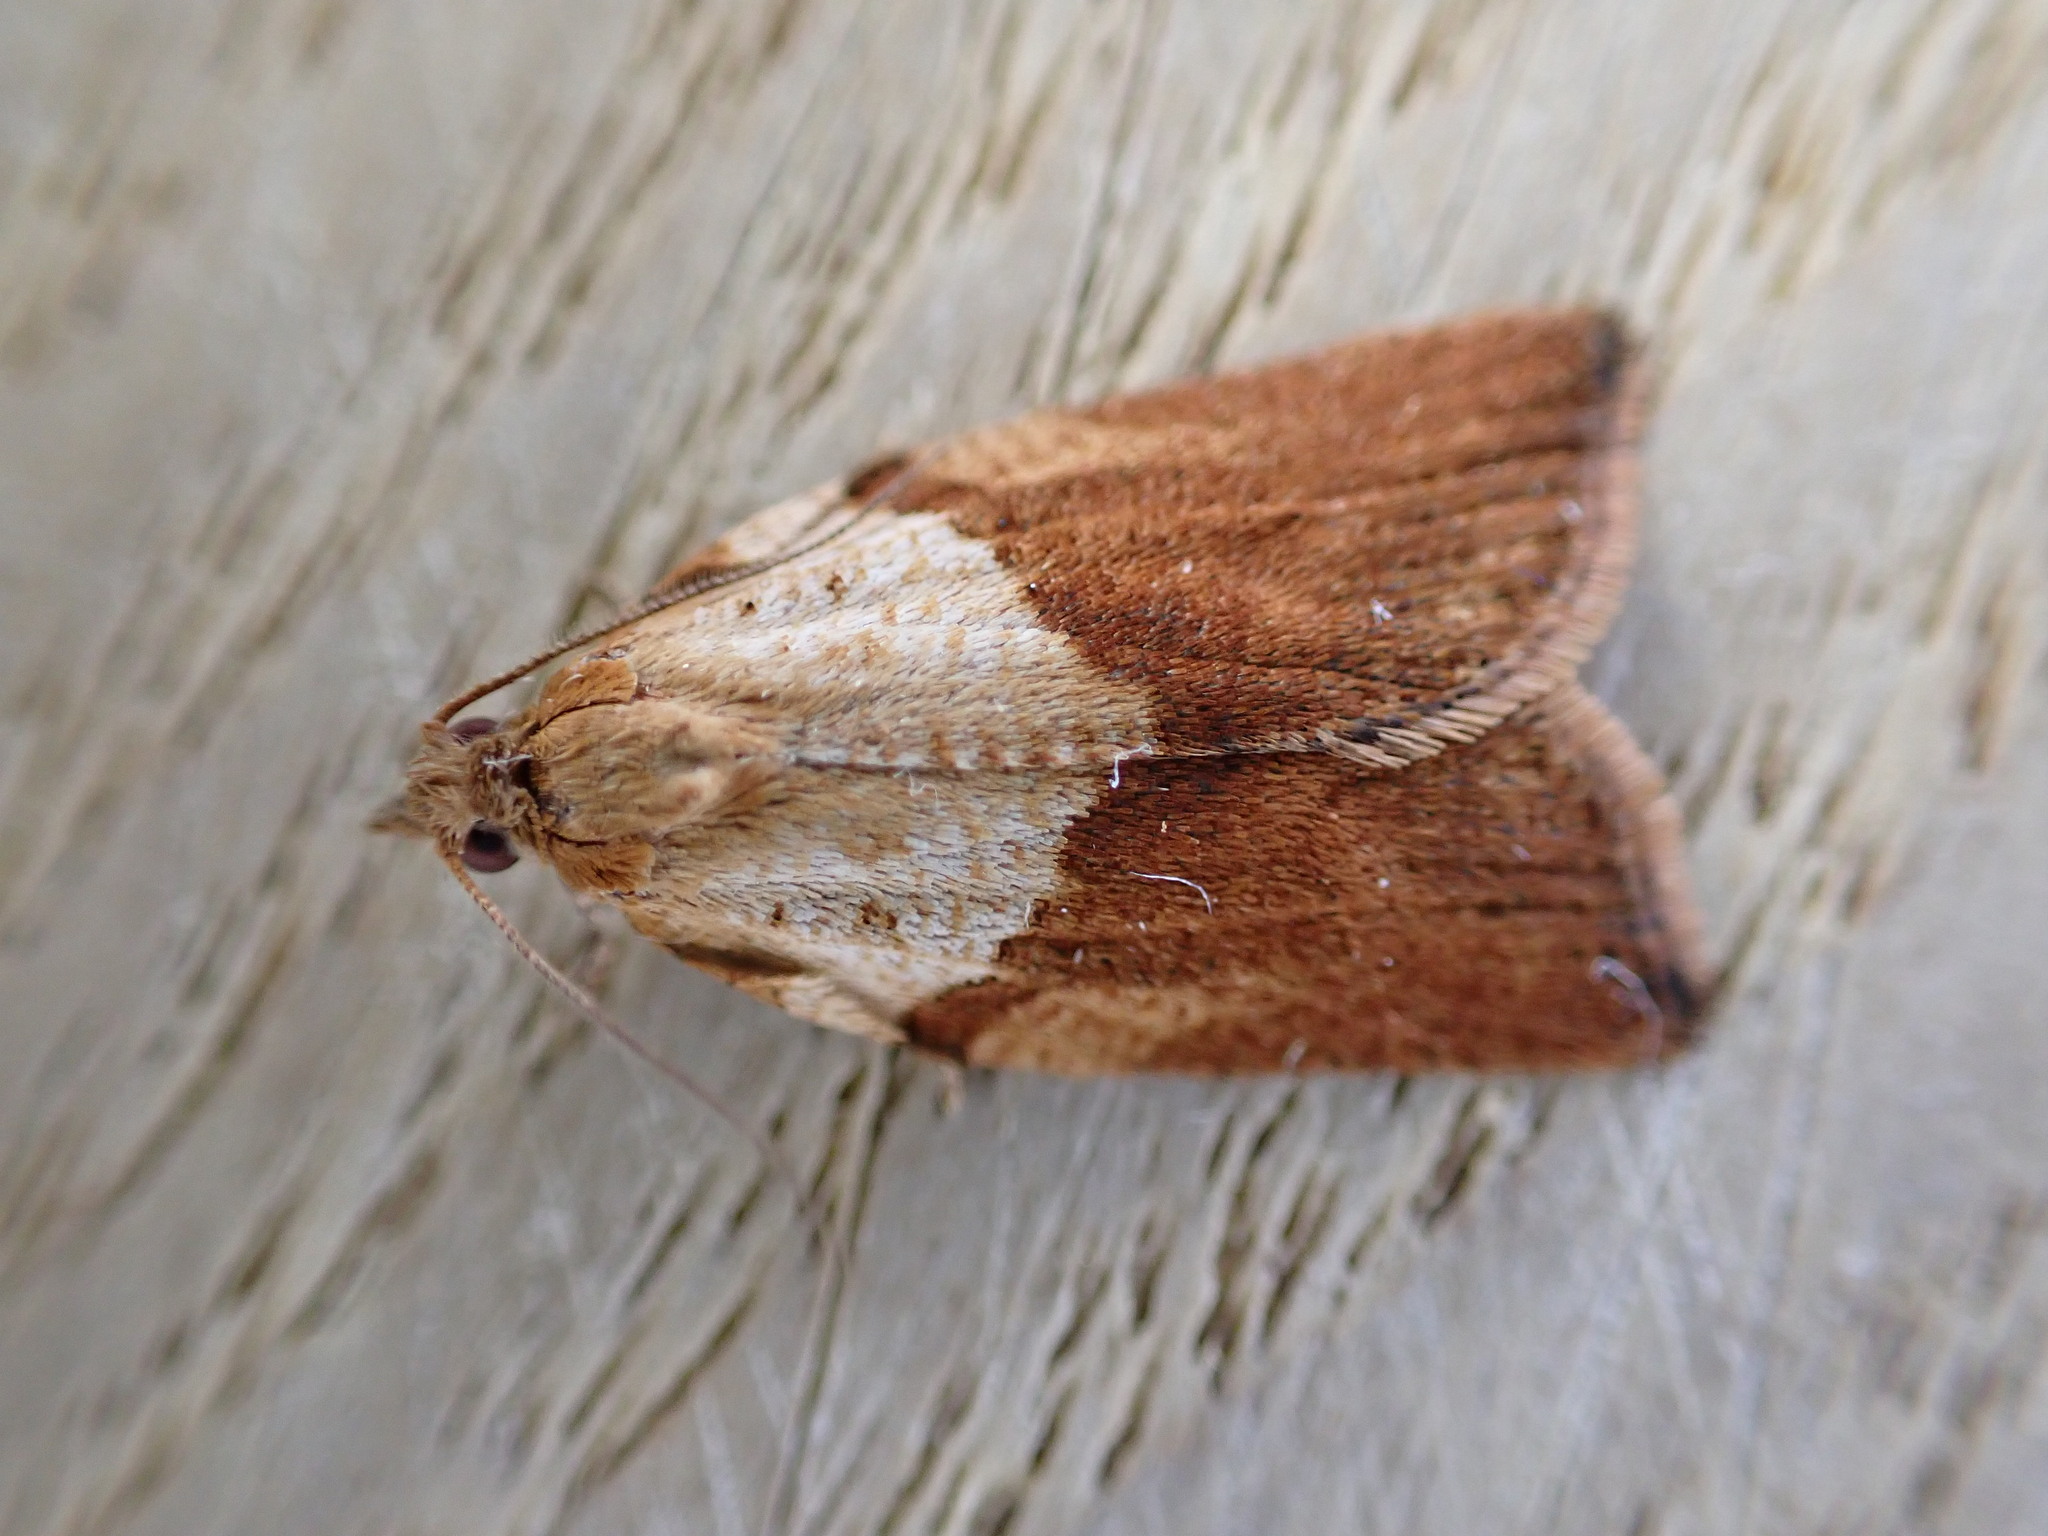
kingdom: Animalia
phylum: Arthropoda
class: Insecta
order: Lepidoptera
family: Tortricidae
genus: Epiphyas
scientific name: Epiphyas postvittana
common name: Light brown apple moth
